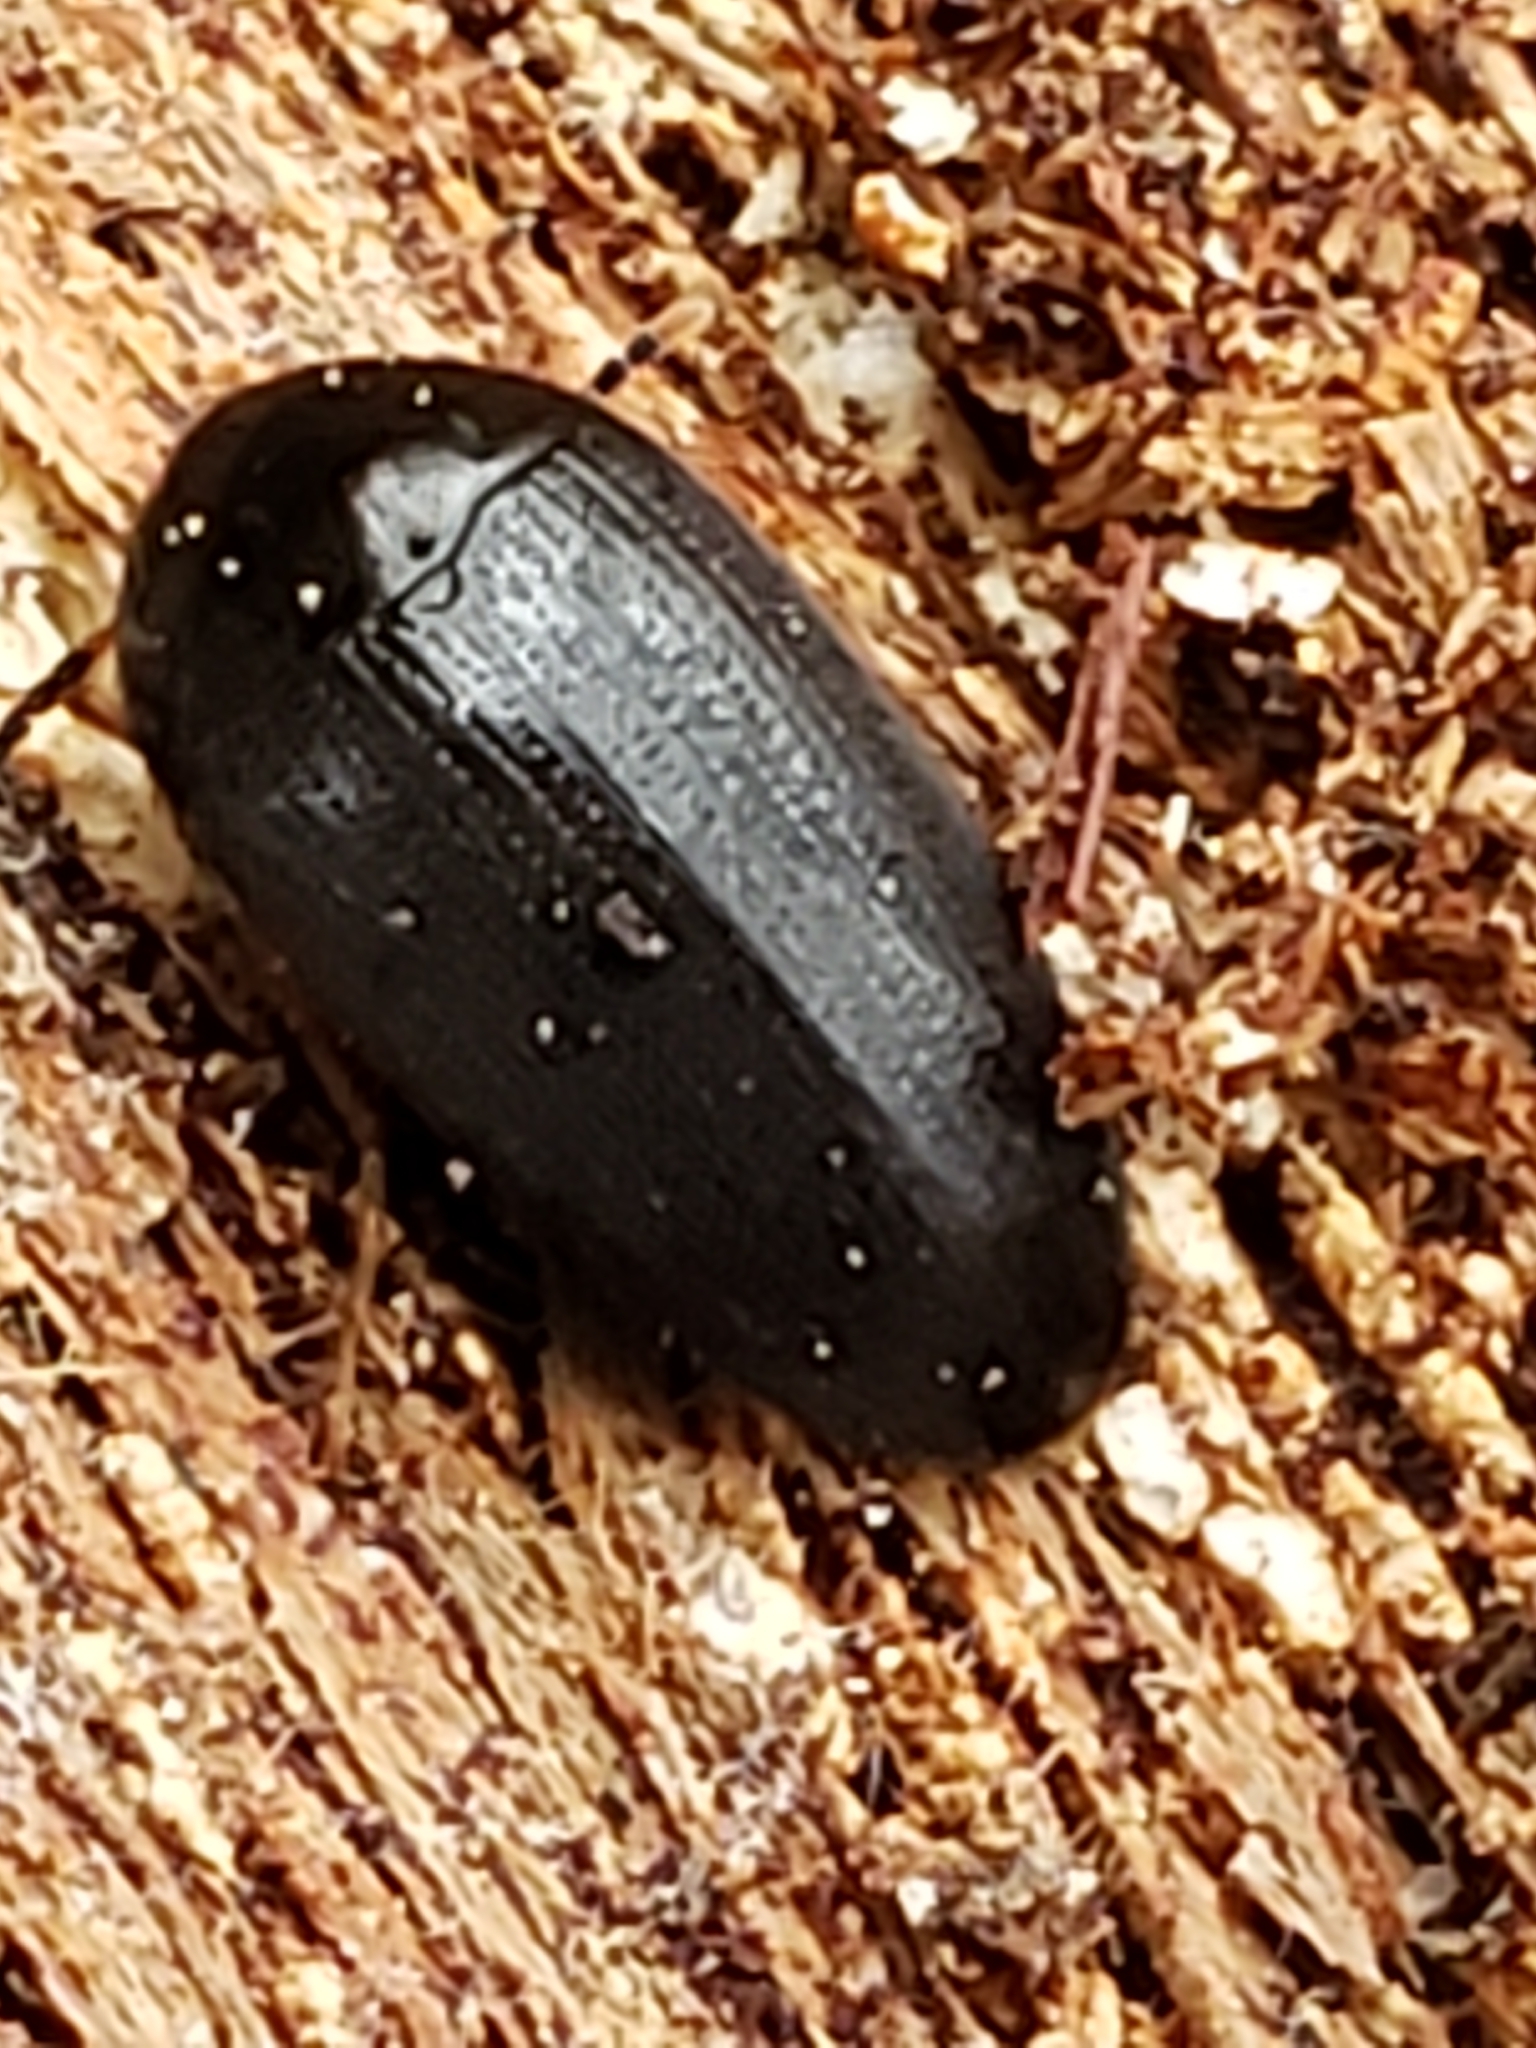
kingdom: Animalia
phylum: Arthropoda
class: Insecta
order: Coleoptera
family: Tetratomidae
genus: Eustrophopsis
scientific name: Eustrophopsis bicolor
